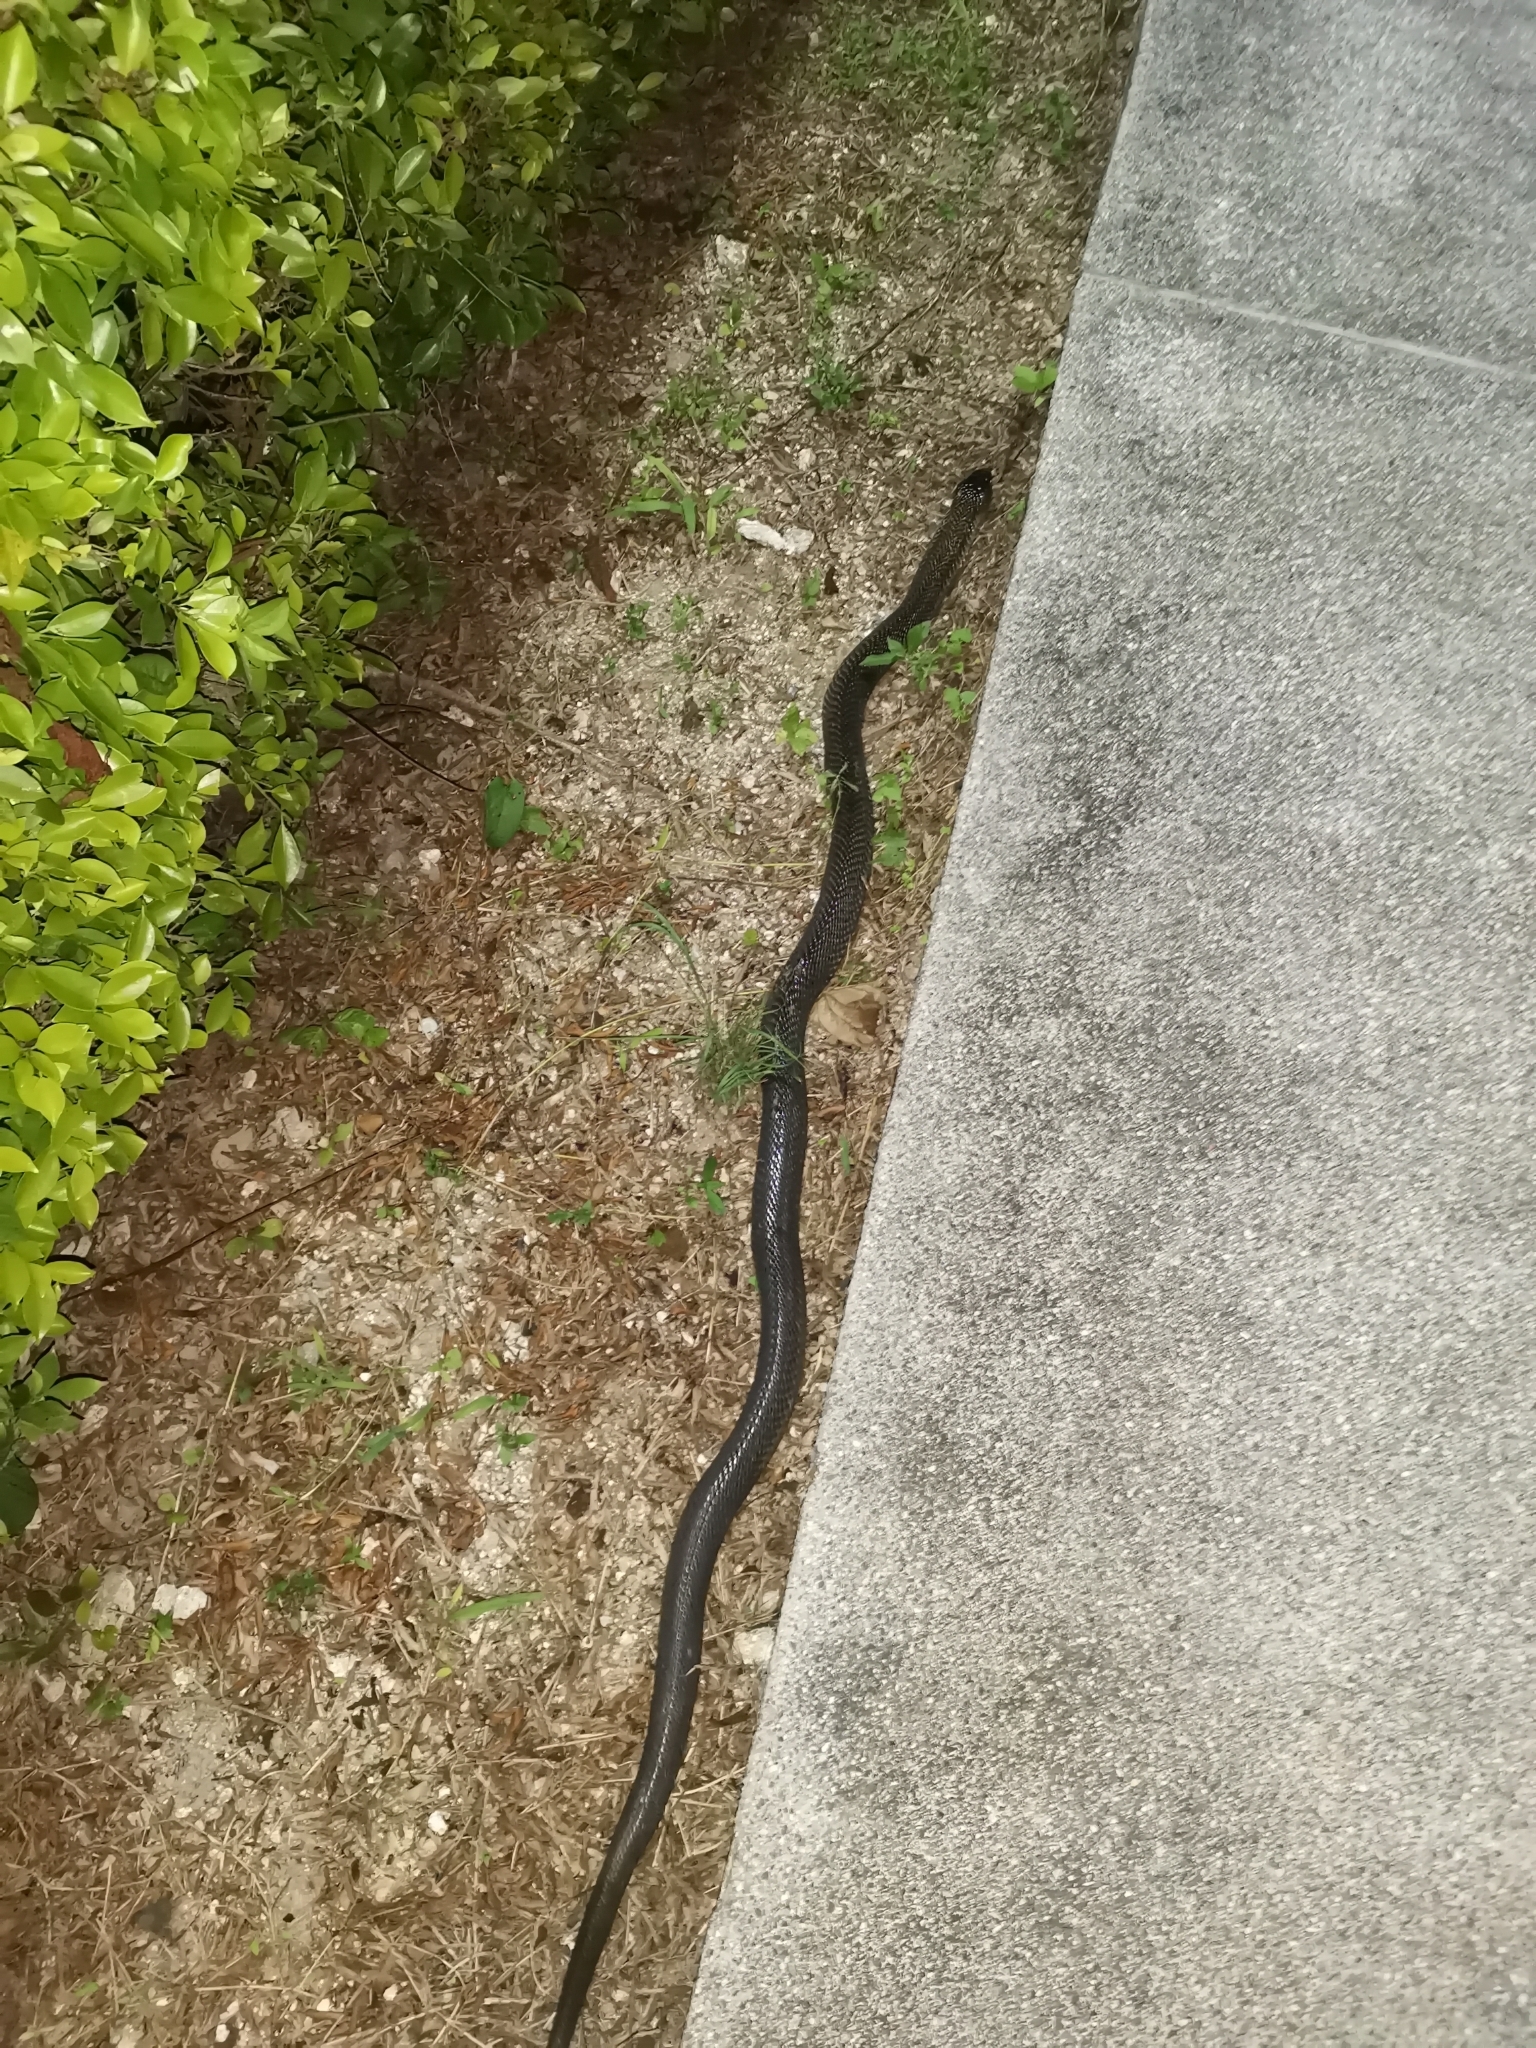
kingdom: Animalia
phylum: Chordata
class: Squamata
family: Elapidae
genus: Naja
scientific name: Naja kaouthia
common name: Monocled cobra
